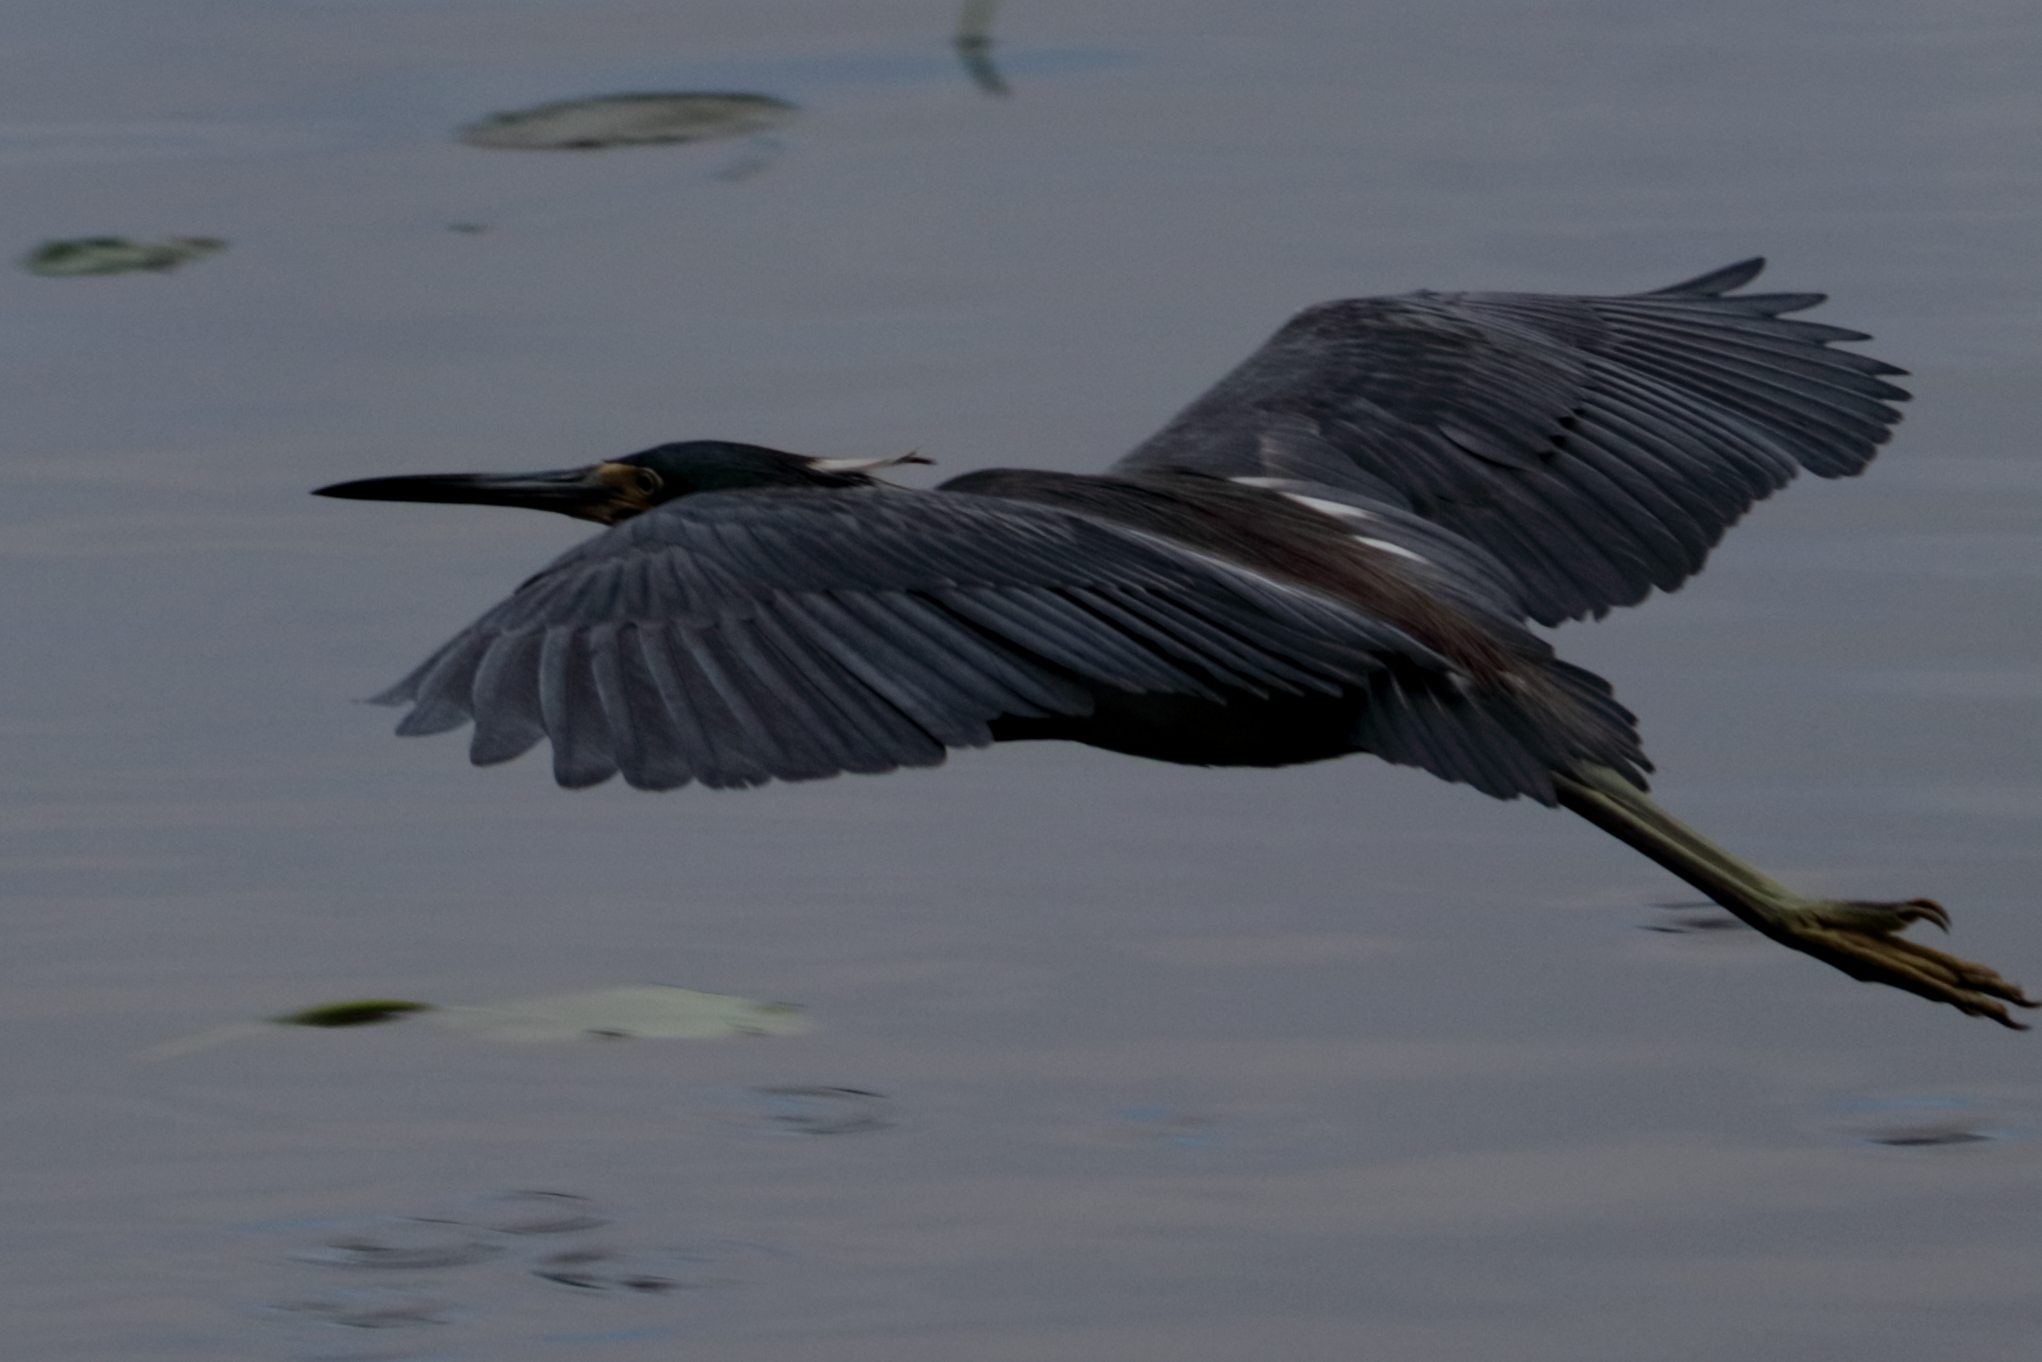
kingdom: Animalia
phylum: Chordata
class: Aves
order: Pelecaniformes
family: Ardeidae
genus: Egretta
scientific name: Egretta tricolor
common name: Tricolored heron
